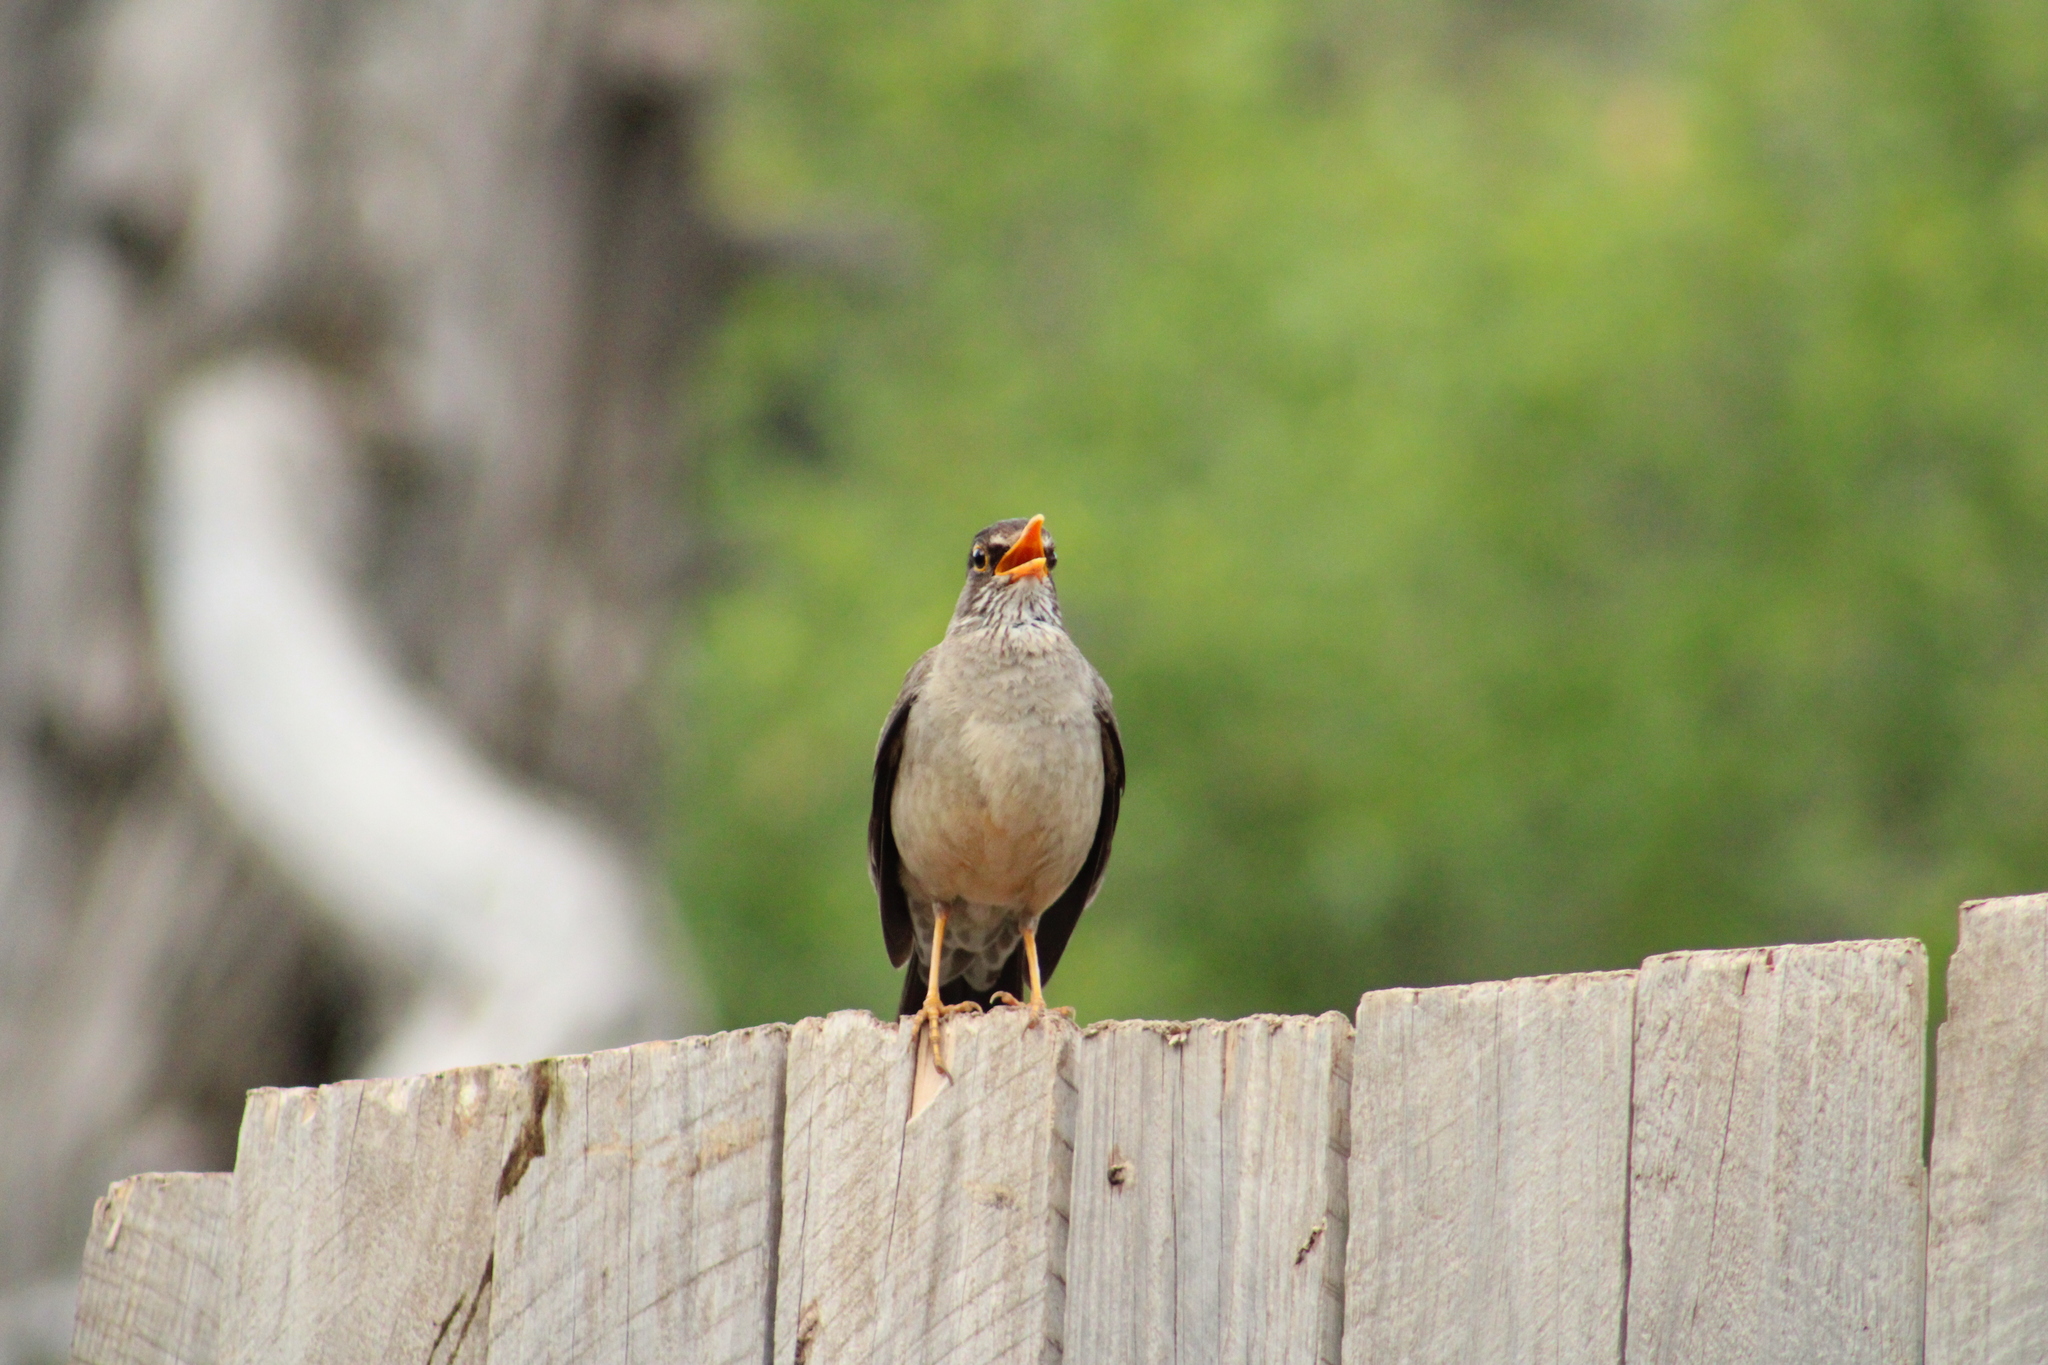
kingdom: Animalia
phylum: Chordata
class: Aves
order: Passeriformes
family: Turdidae
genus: Turdus
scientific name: Turdus falcklandii
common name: Austral thrush
